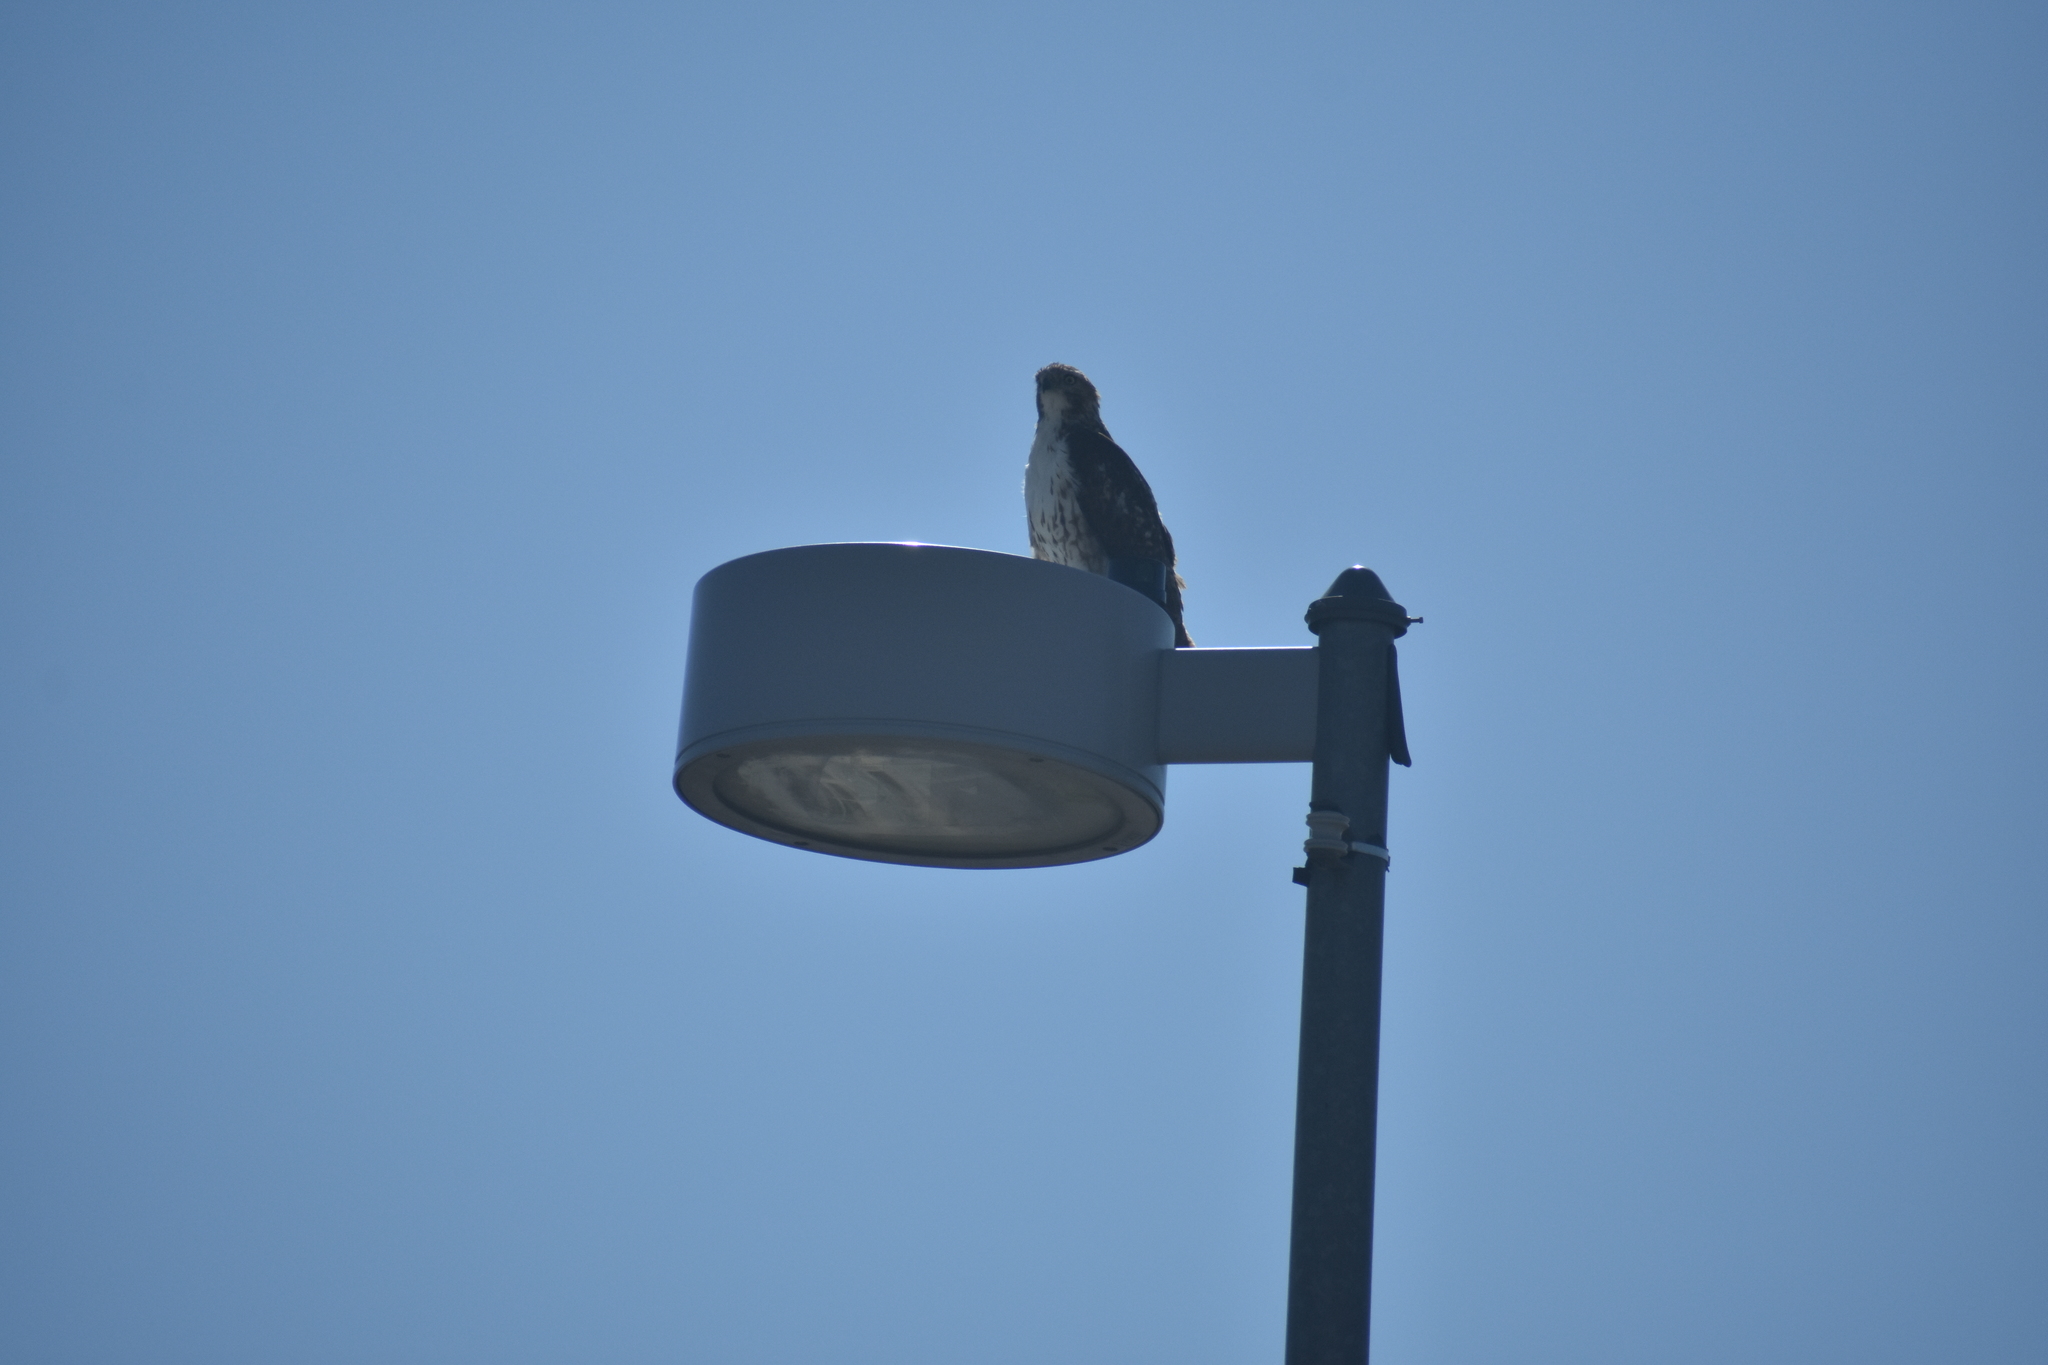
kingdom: Animalia
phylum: Chordata
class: Aves
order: Accipitriformes
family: Accipitridae
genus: Buteo
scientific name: Buteo jamaicensis
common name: Red-tailed hawk
